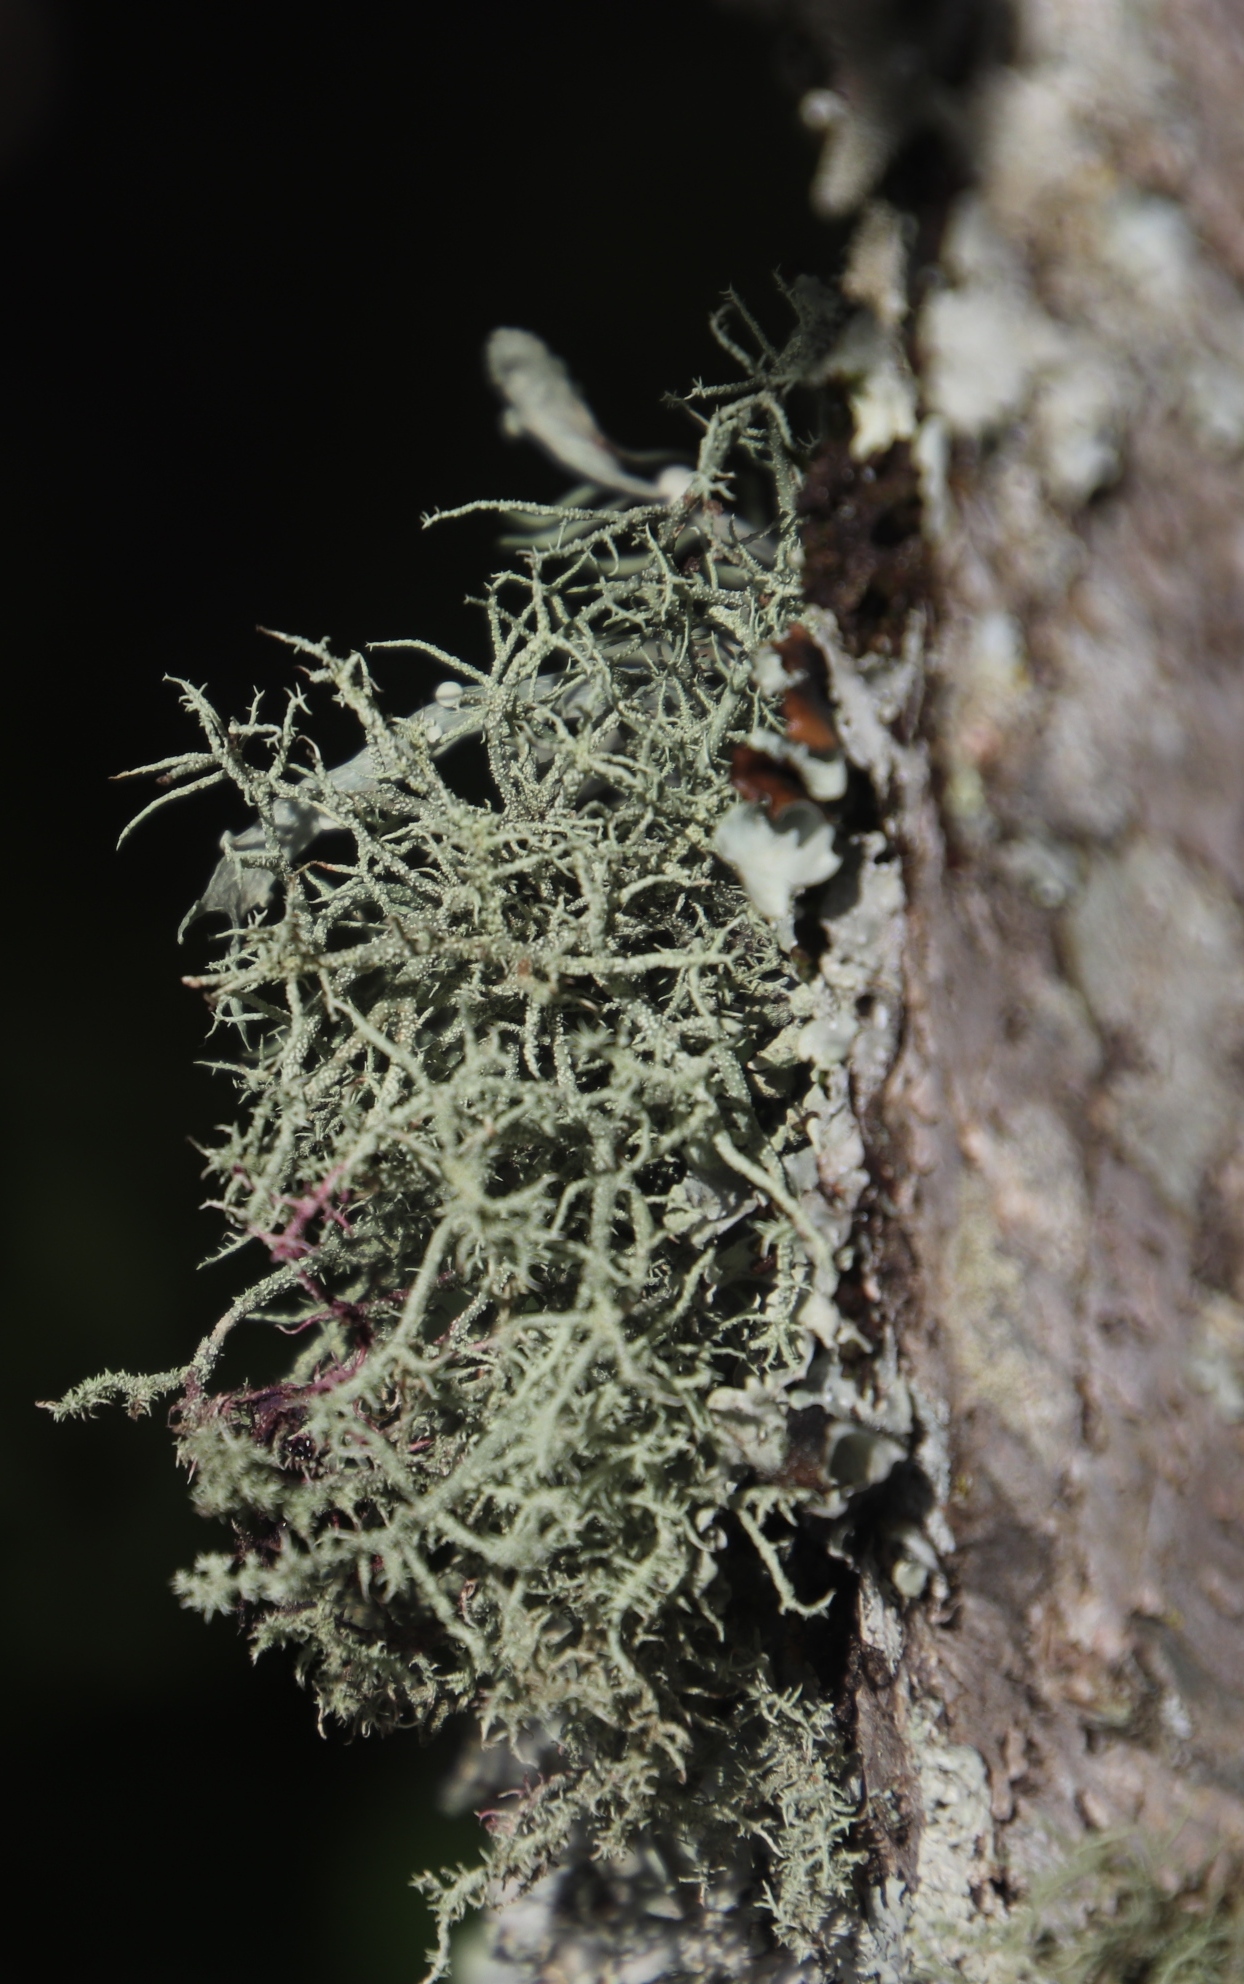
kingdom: Fungi
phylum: Ascomycota
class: Lecanoromycetes
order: Lecanorales
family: Ramalinaceae
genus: Ramalina
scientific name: Ramalina celastri
